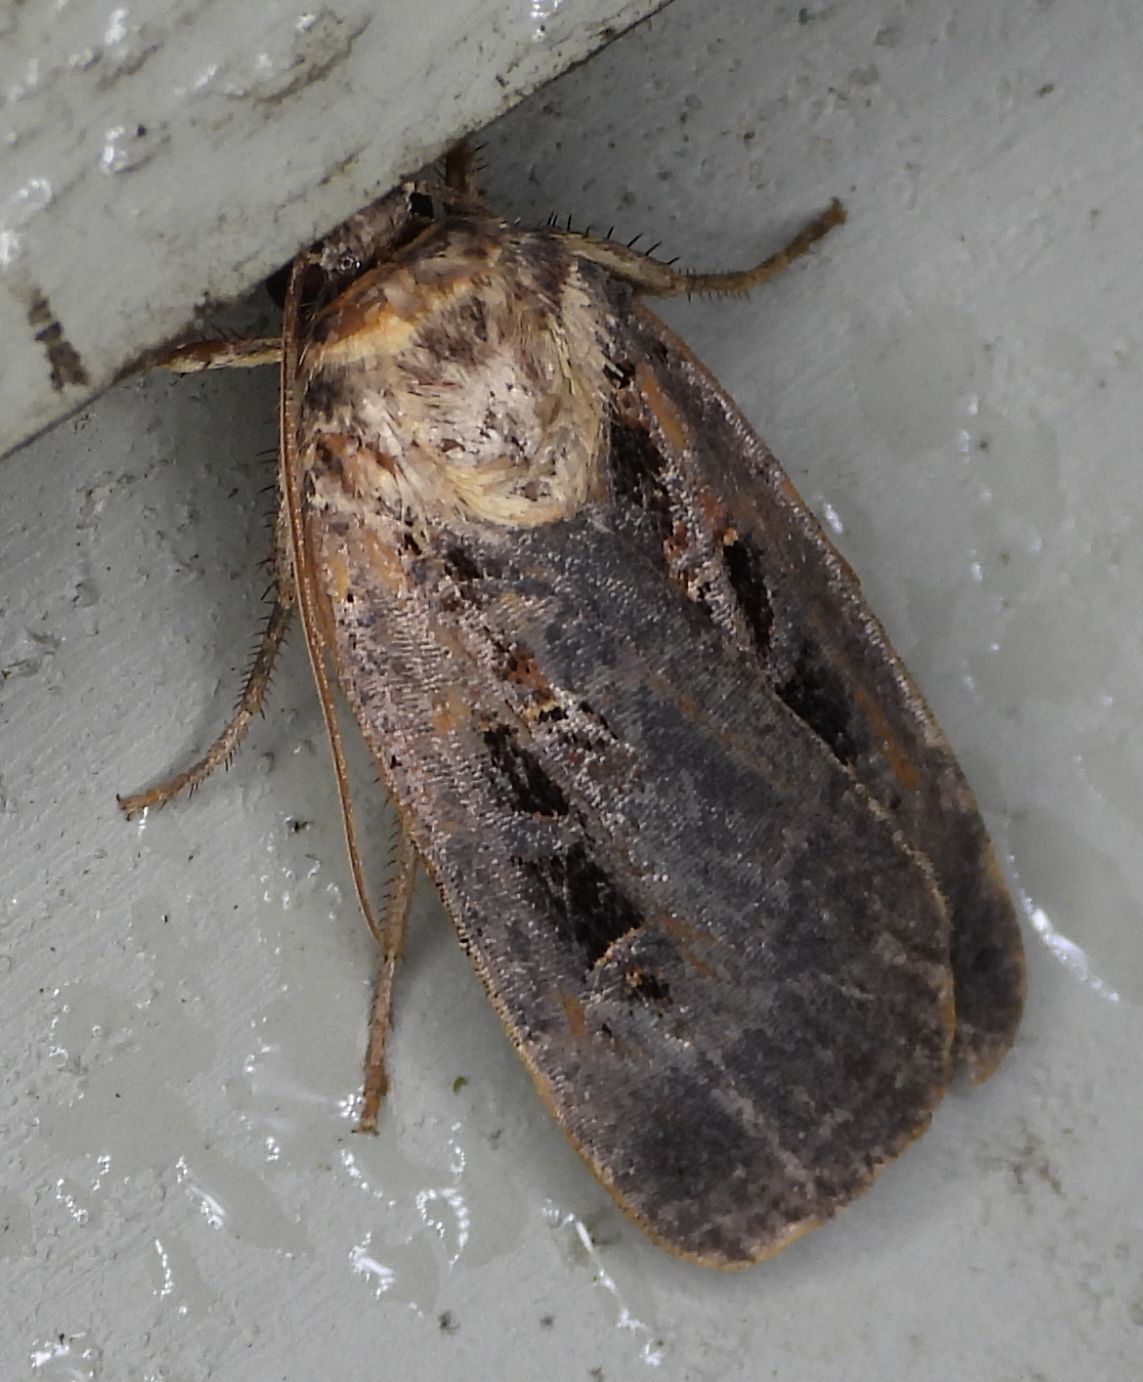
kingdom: Animalia
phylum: Arthropoda
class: Insecta
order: Lepidoptera
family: Noctuidae
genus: Pseudohermonassa
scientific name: Pseudohermonassa tenuicula
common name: Morrison's sooty dart
